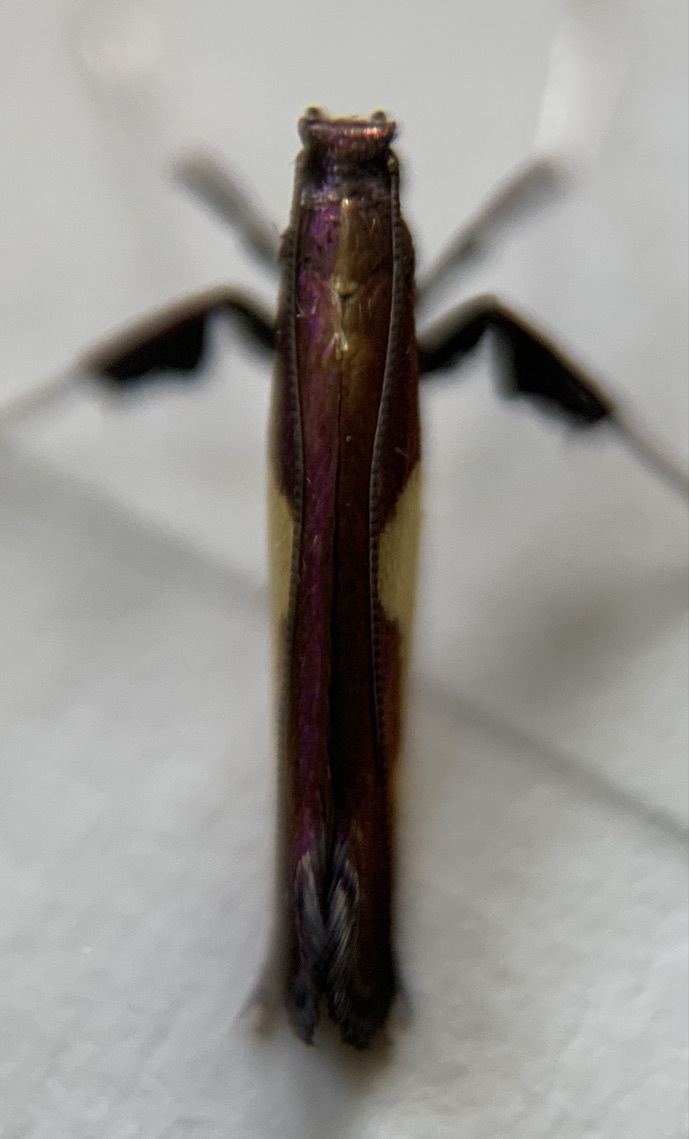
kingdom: Animalia
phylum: Arthropoda
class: Insecta
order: Lepidoptera
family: Gracillariidae
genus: Caloptilia
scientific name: Caloptilia porphyretica
